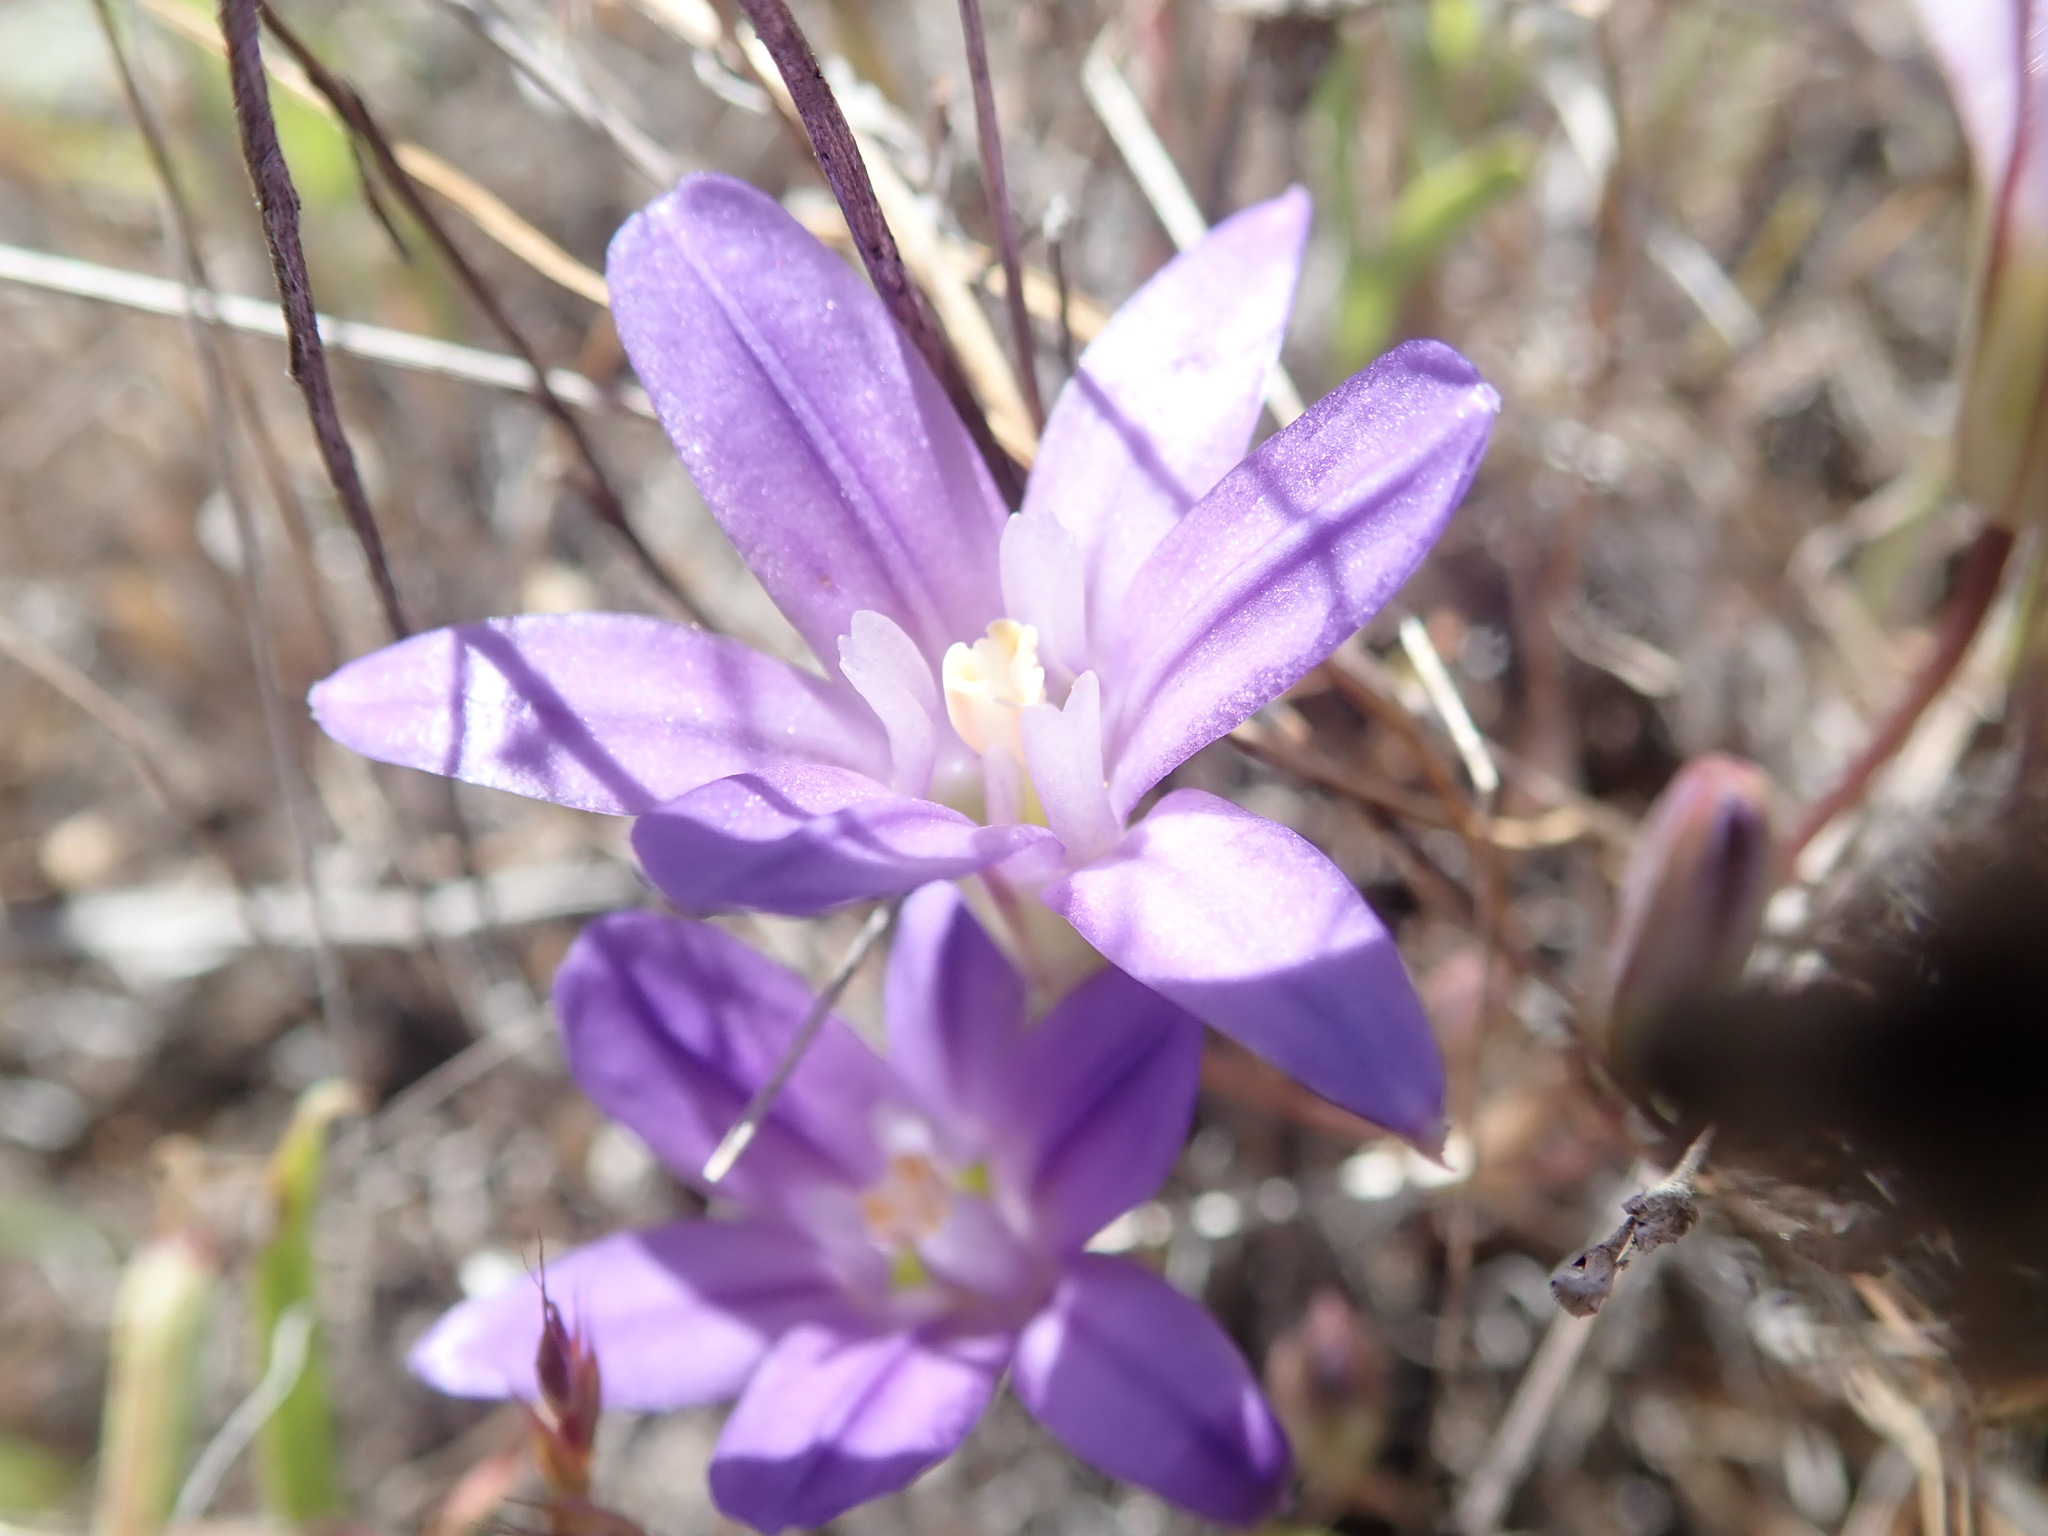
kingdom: Plantae
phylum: Tracheophyta
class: Liliopsida
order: Asparagales
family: Asparagaceae
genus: Brodiaea
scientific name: Brodiaea terrestris
